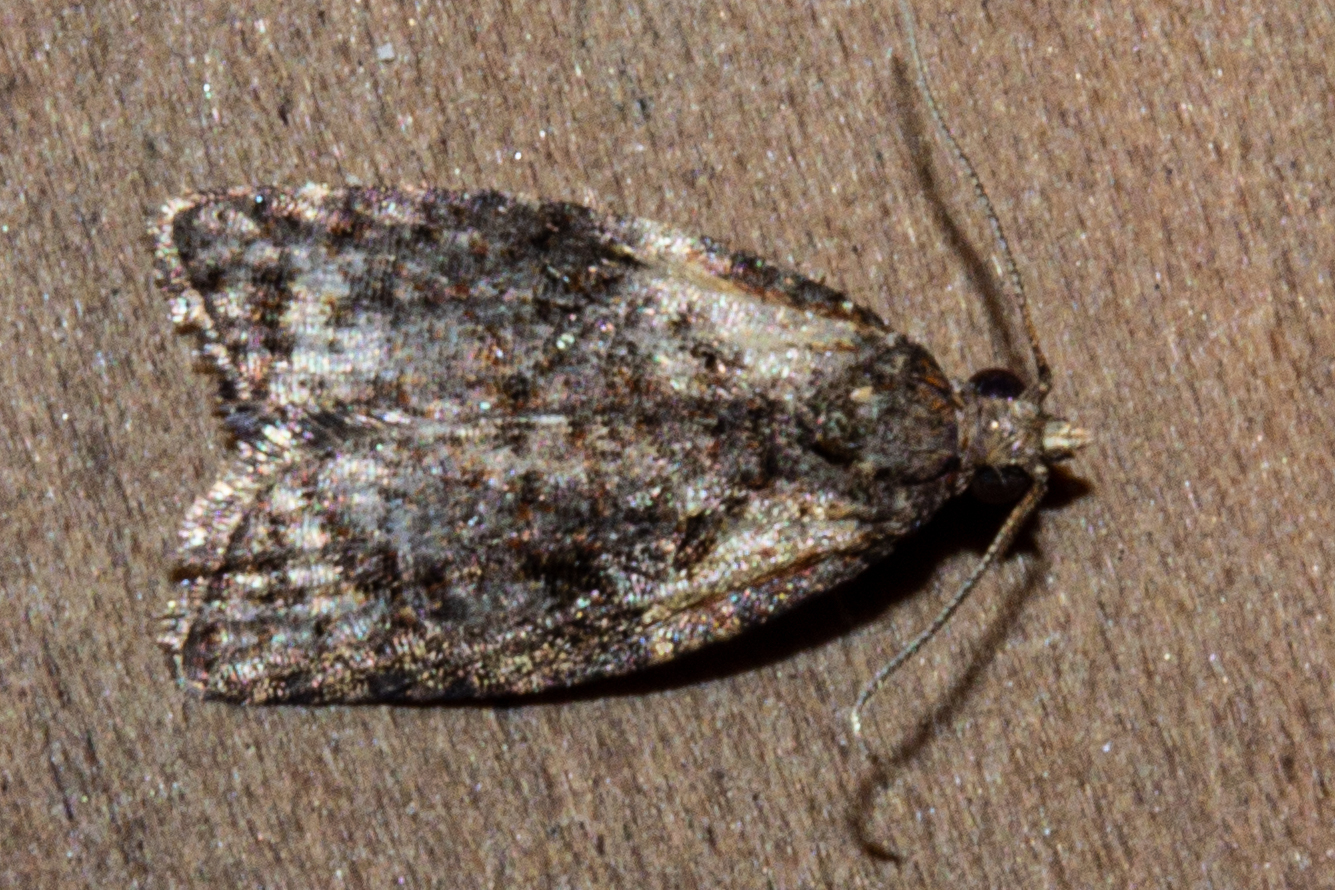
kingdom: Animalia
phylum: Arthropoda
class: Insecta
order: Lepidoptera
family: Tortricidae
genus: Capua
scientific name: Capua intractana
